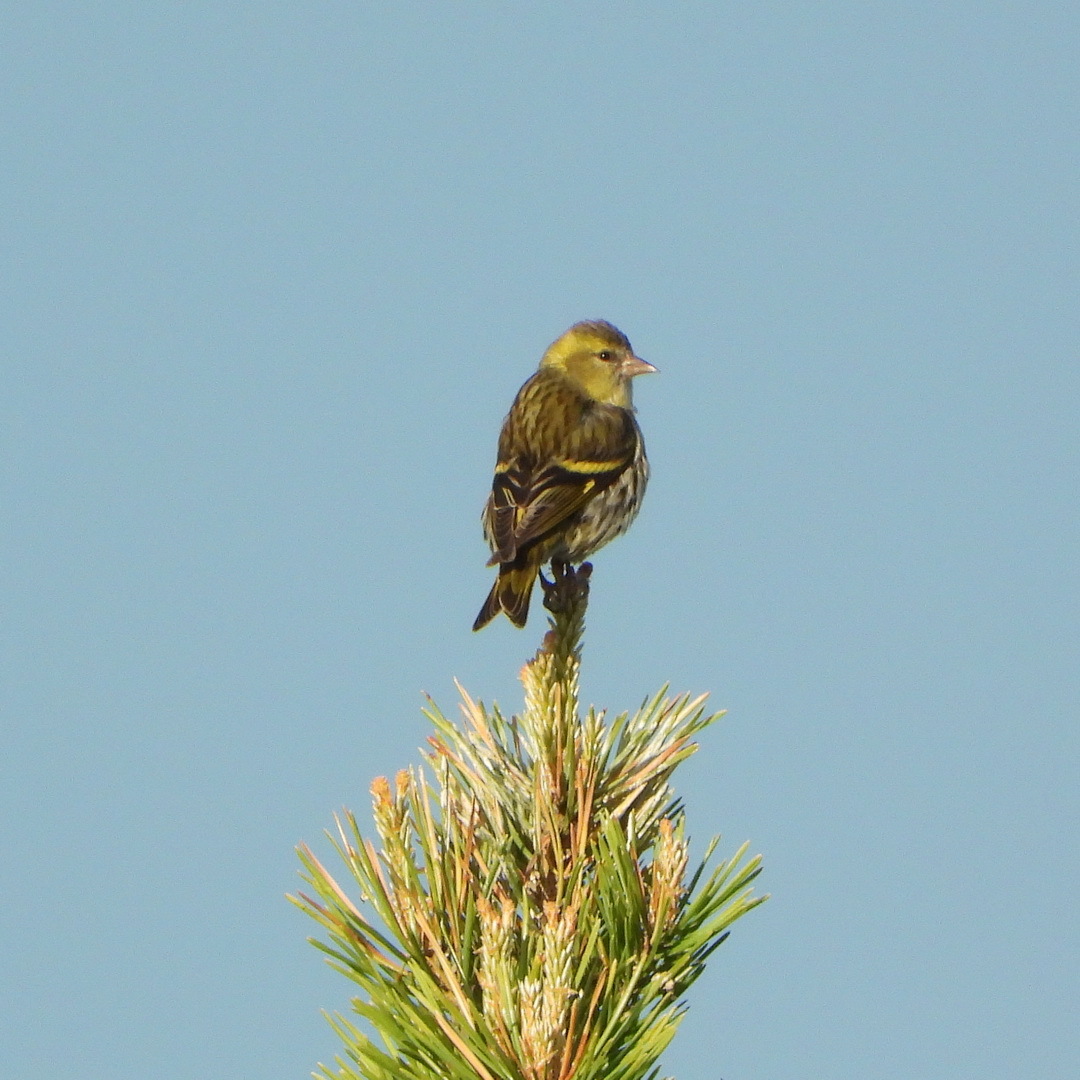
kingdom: Animalia
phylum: Chordata
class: Aves
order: Passeriformes
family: Fringillidae
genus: Spinus
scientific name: Spinus spinus
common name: Eurasian siskin
